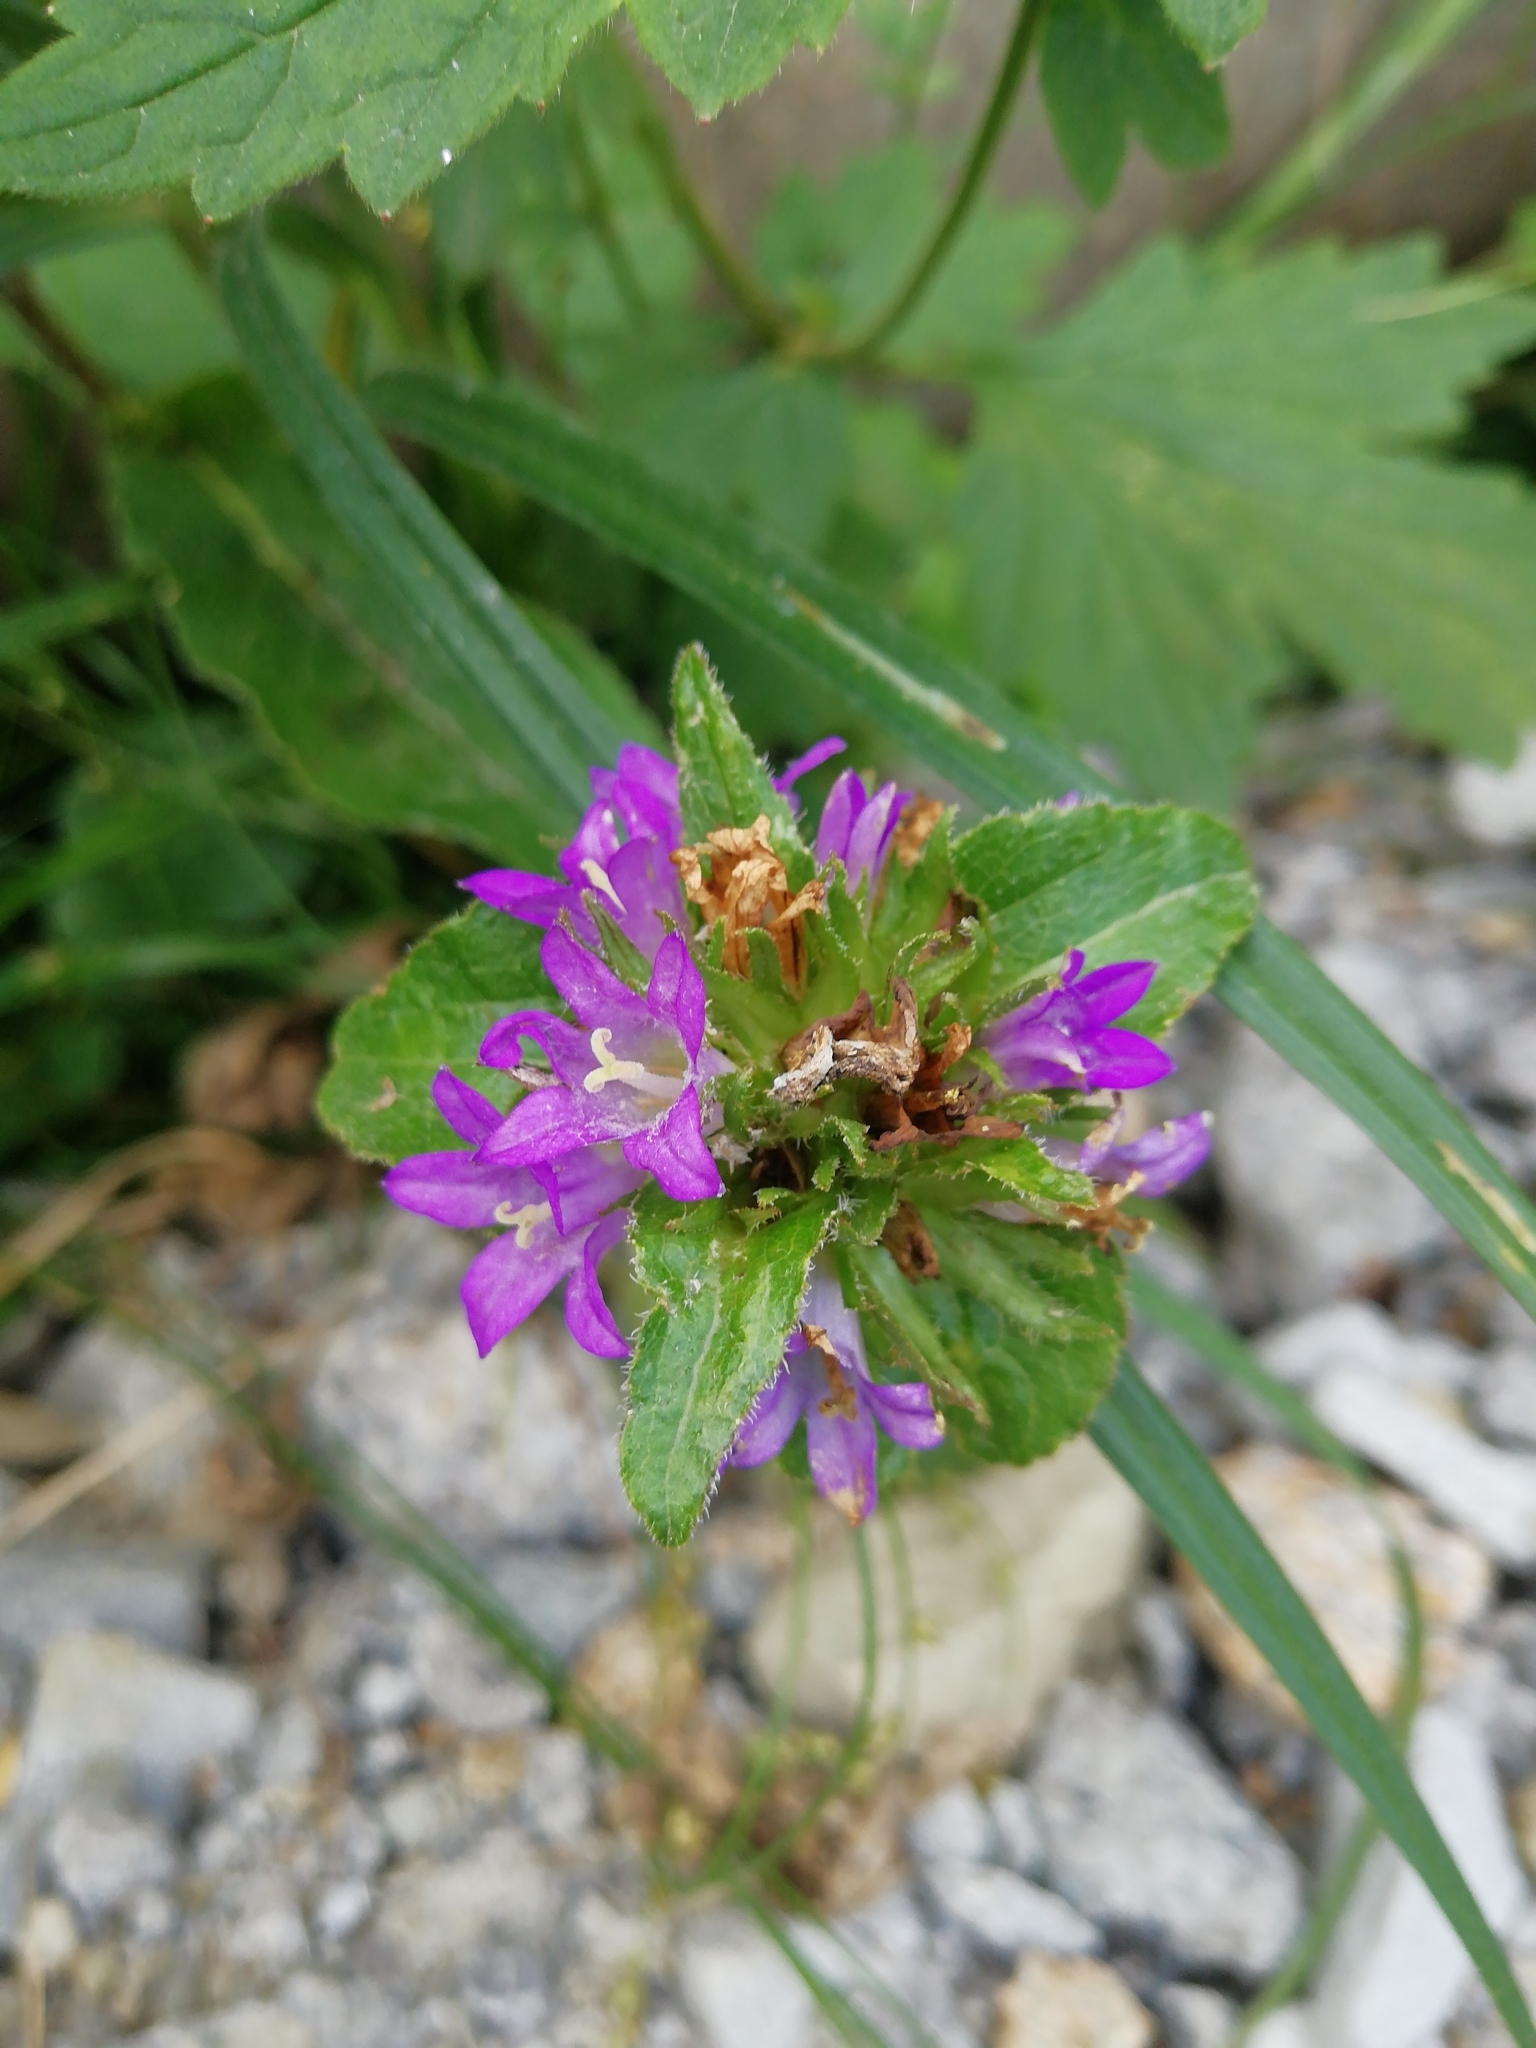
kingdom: Plantae
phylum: Tracheophyta
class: Magnoliopsida
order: Asterales
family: Campanulaceae
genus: Campanula
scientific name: Campanula glomerata
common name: Clustered bellflower
